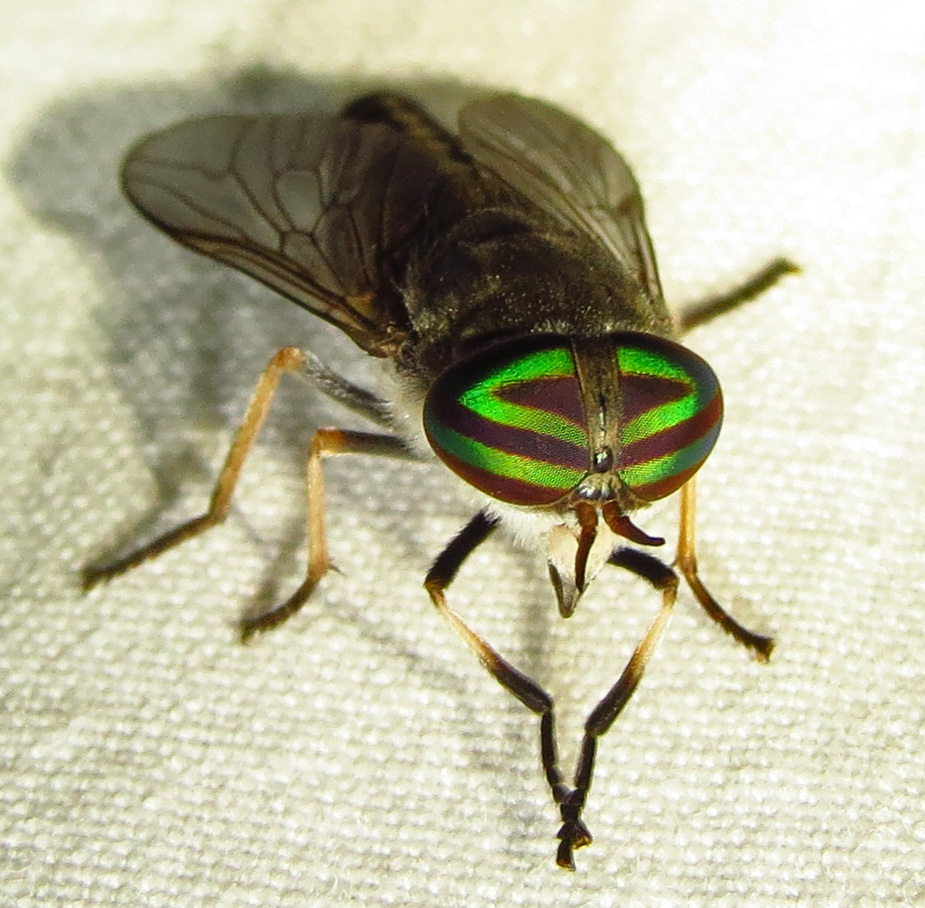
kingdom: Animalia
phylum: Arthropoda
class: Insecta
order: Diptera
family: Tabanidae
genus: Tabanus
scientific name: Tabanus lineola
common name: Striped horse fly
